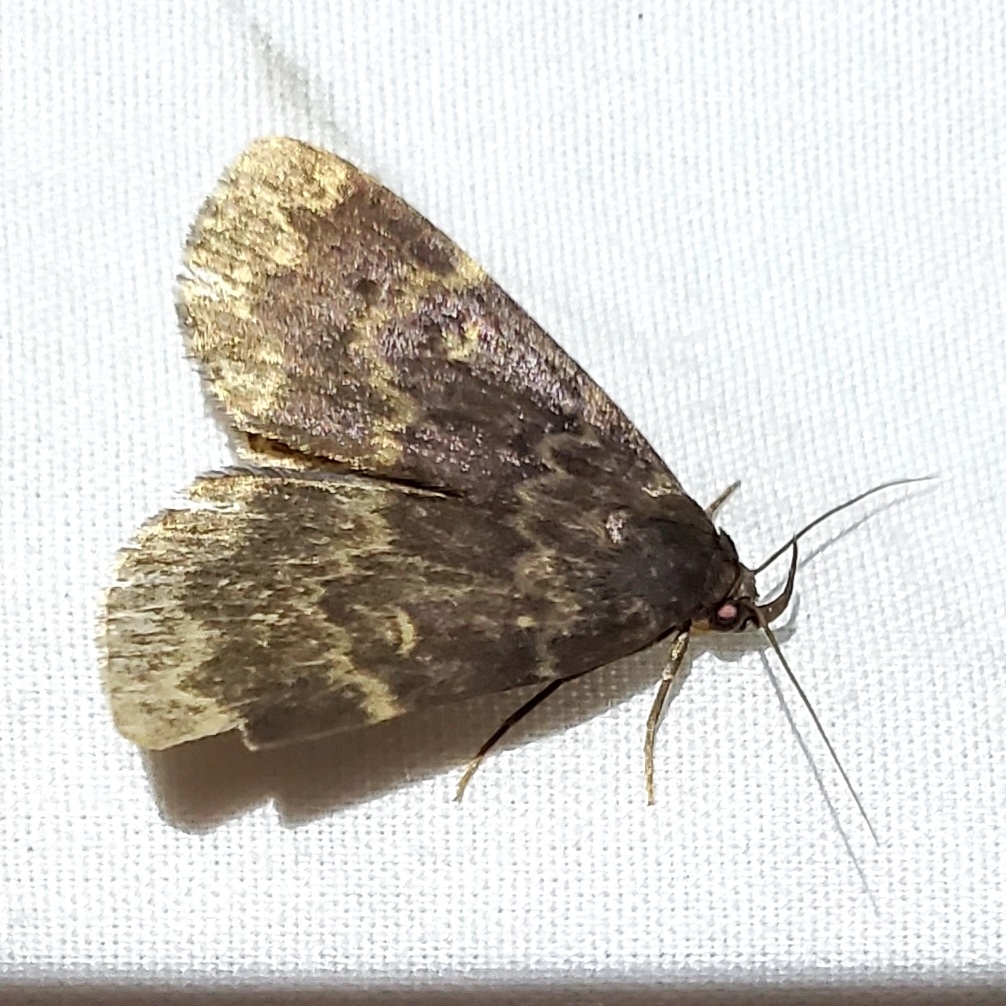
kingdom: Animalia
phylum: Arthropoda
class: Insecta
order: Lepidoptera
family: Erebidae
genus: Idia
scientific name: Idia lubricalis
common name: Twin-striped tabby
